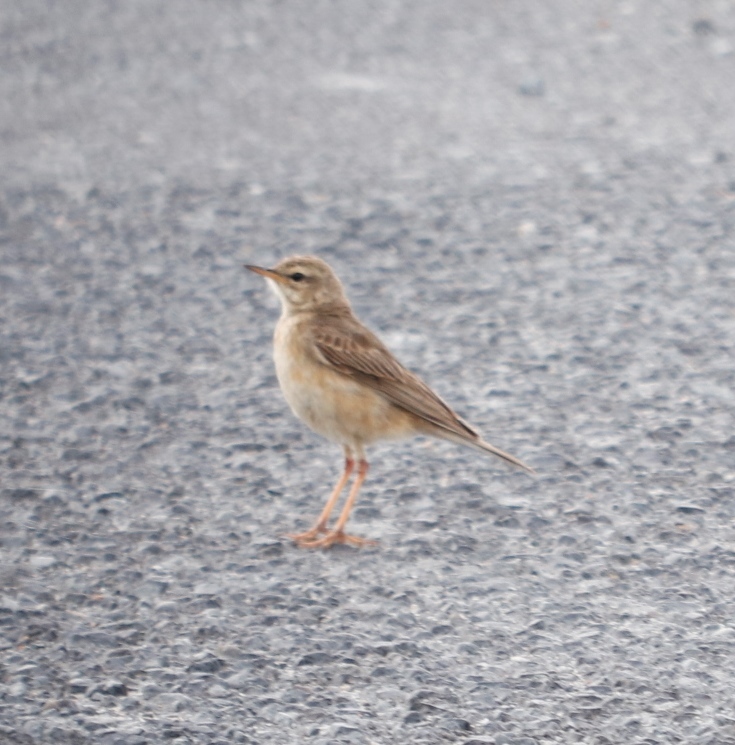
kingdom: Animalia
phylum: Chordata
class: Aves
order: Passeriformes
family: Motacillidae
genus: Anthus
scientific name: Anthus leucophrys
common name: Plain-backed pipit
